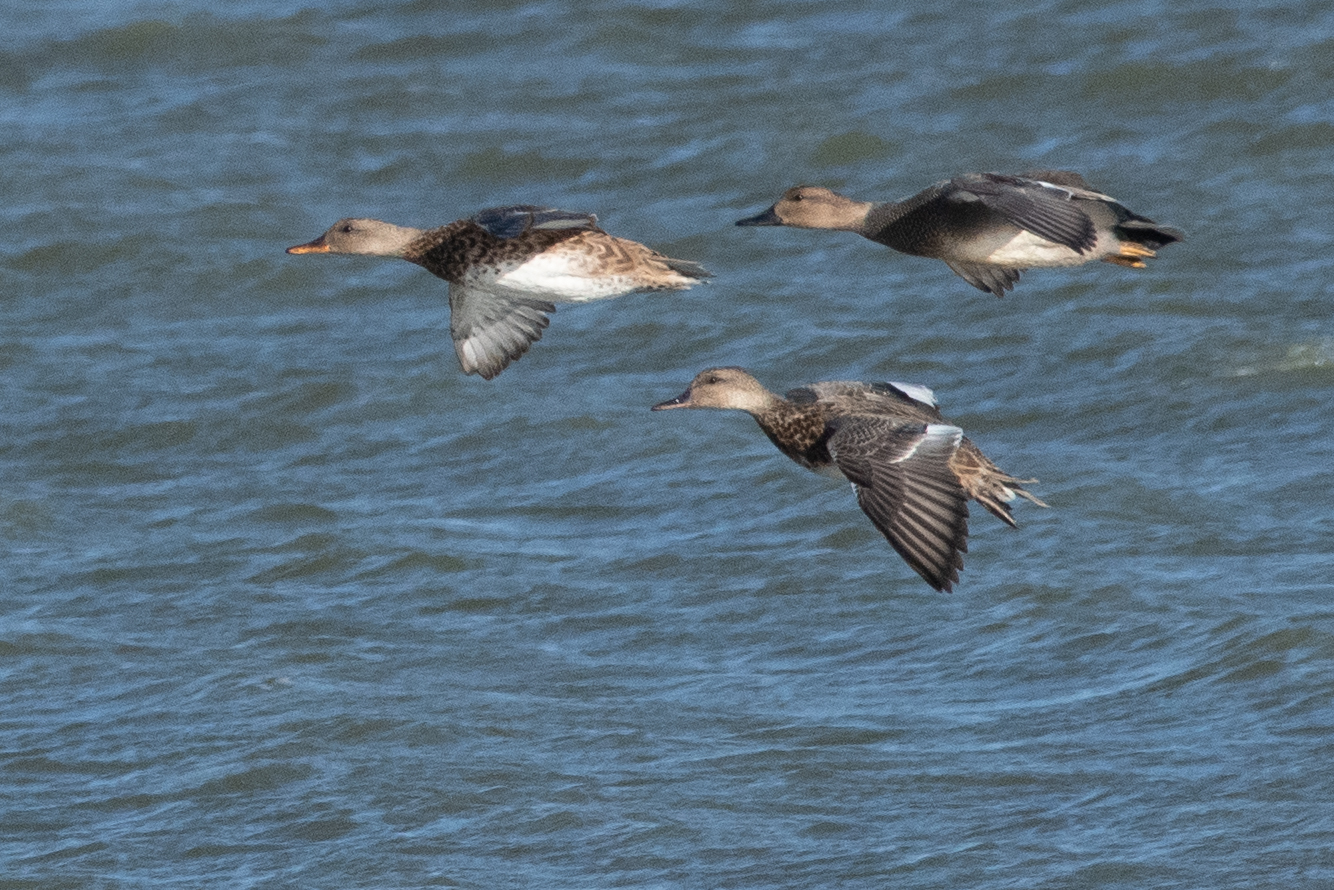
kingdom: Animalia
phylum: Chordata
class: Aves
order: Anseriformes
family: Anatidae
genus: Mareca
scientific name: Mareca strepera
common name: Gadwall
